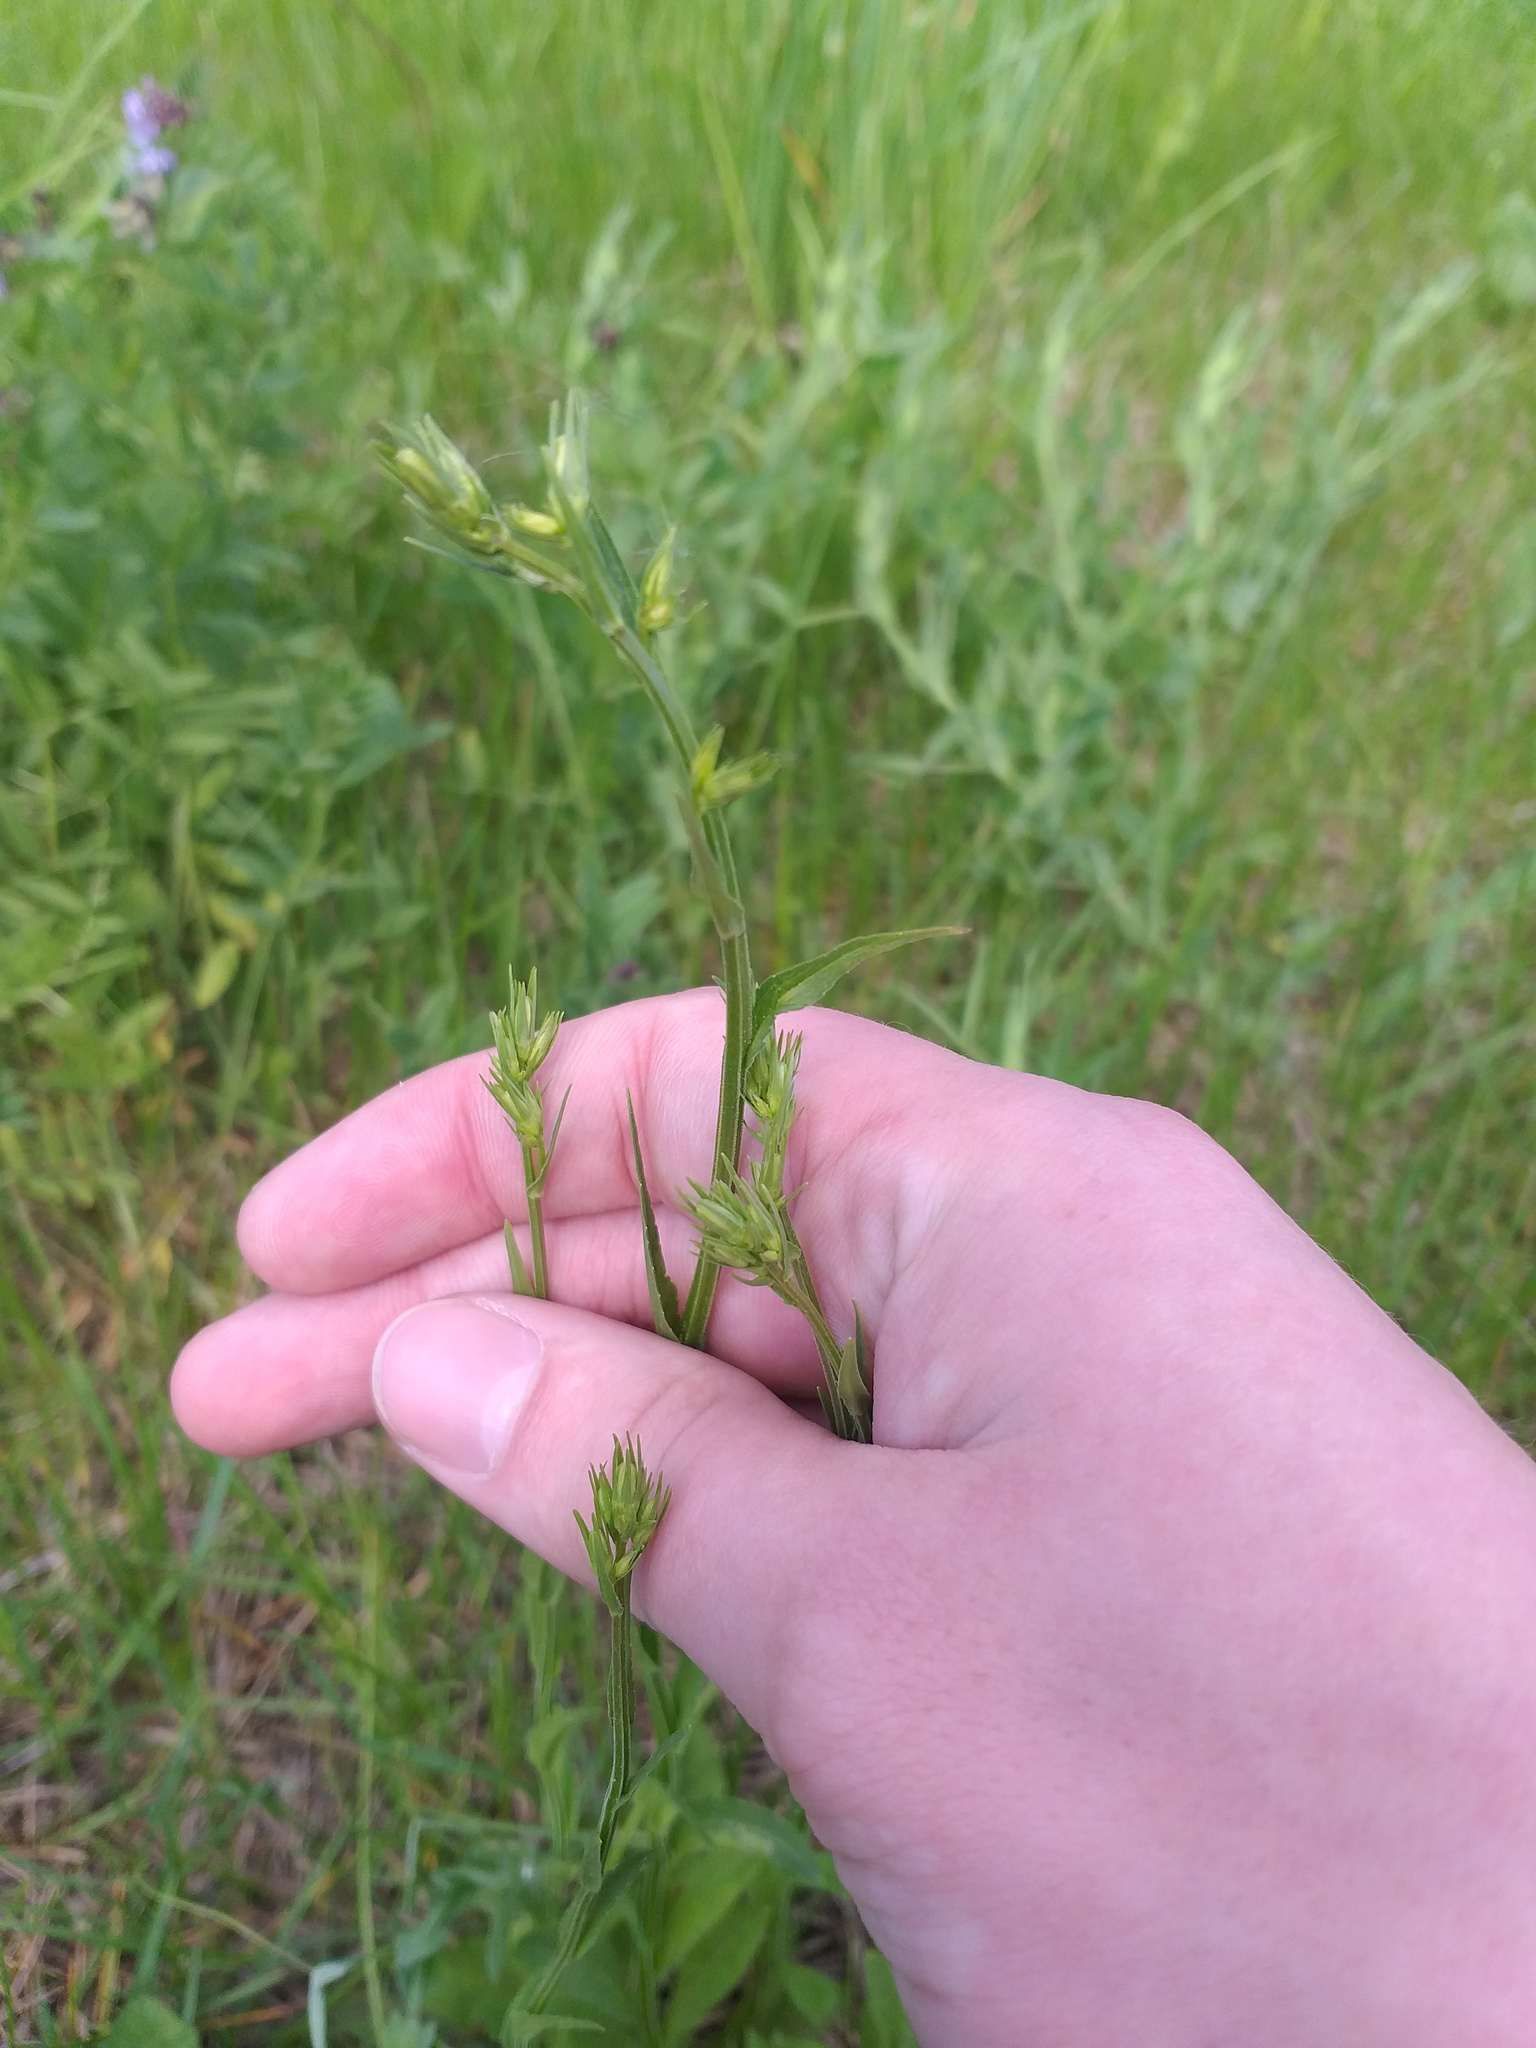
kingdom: Plantae
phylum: Tracheophyta
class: Magnoliopsida
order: Asterales
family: Campanulaceae
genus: Campanula
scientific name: Campanula patula
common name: Spreading bellflower
